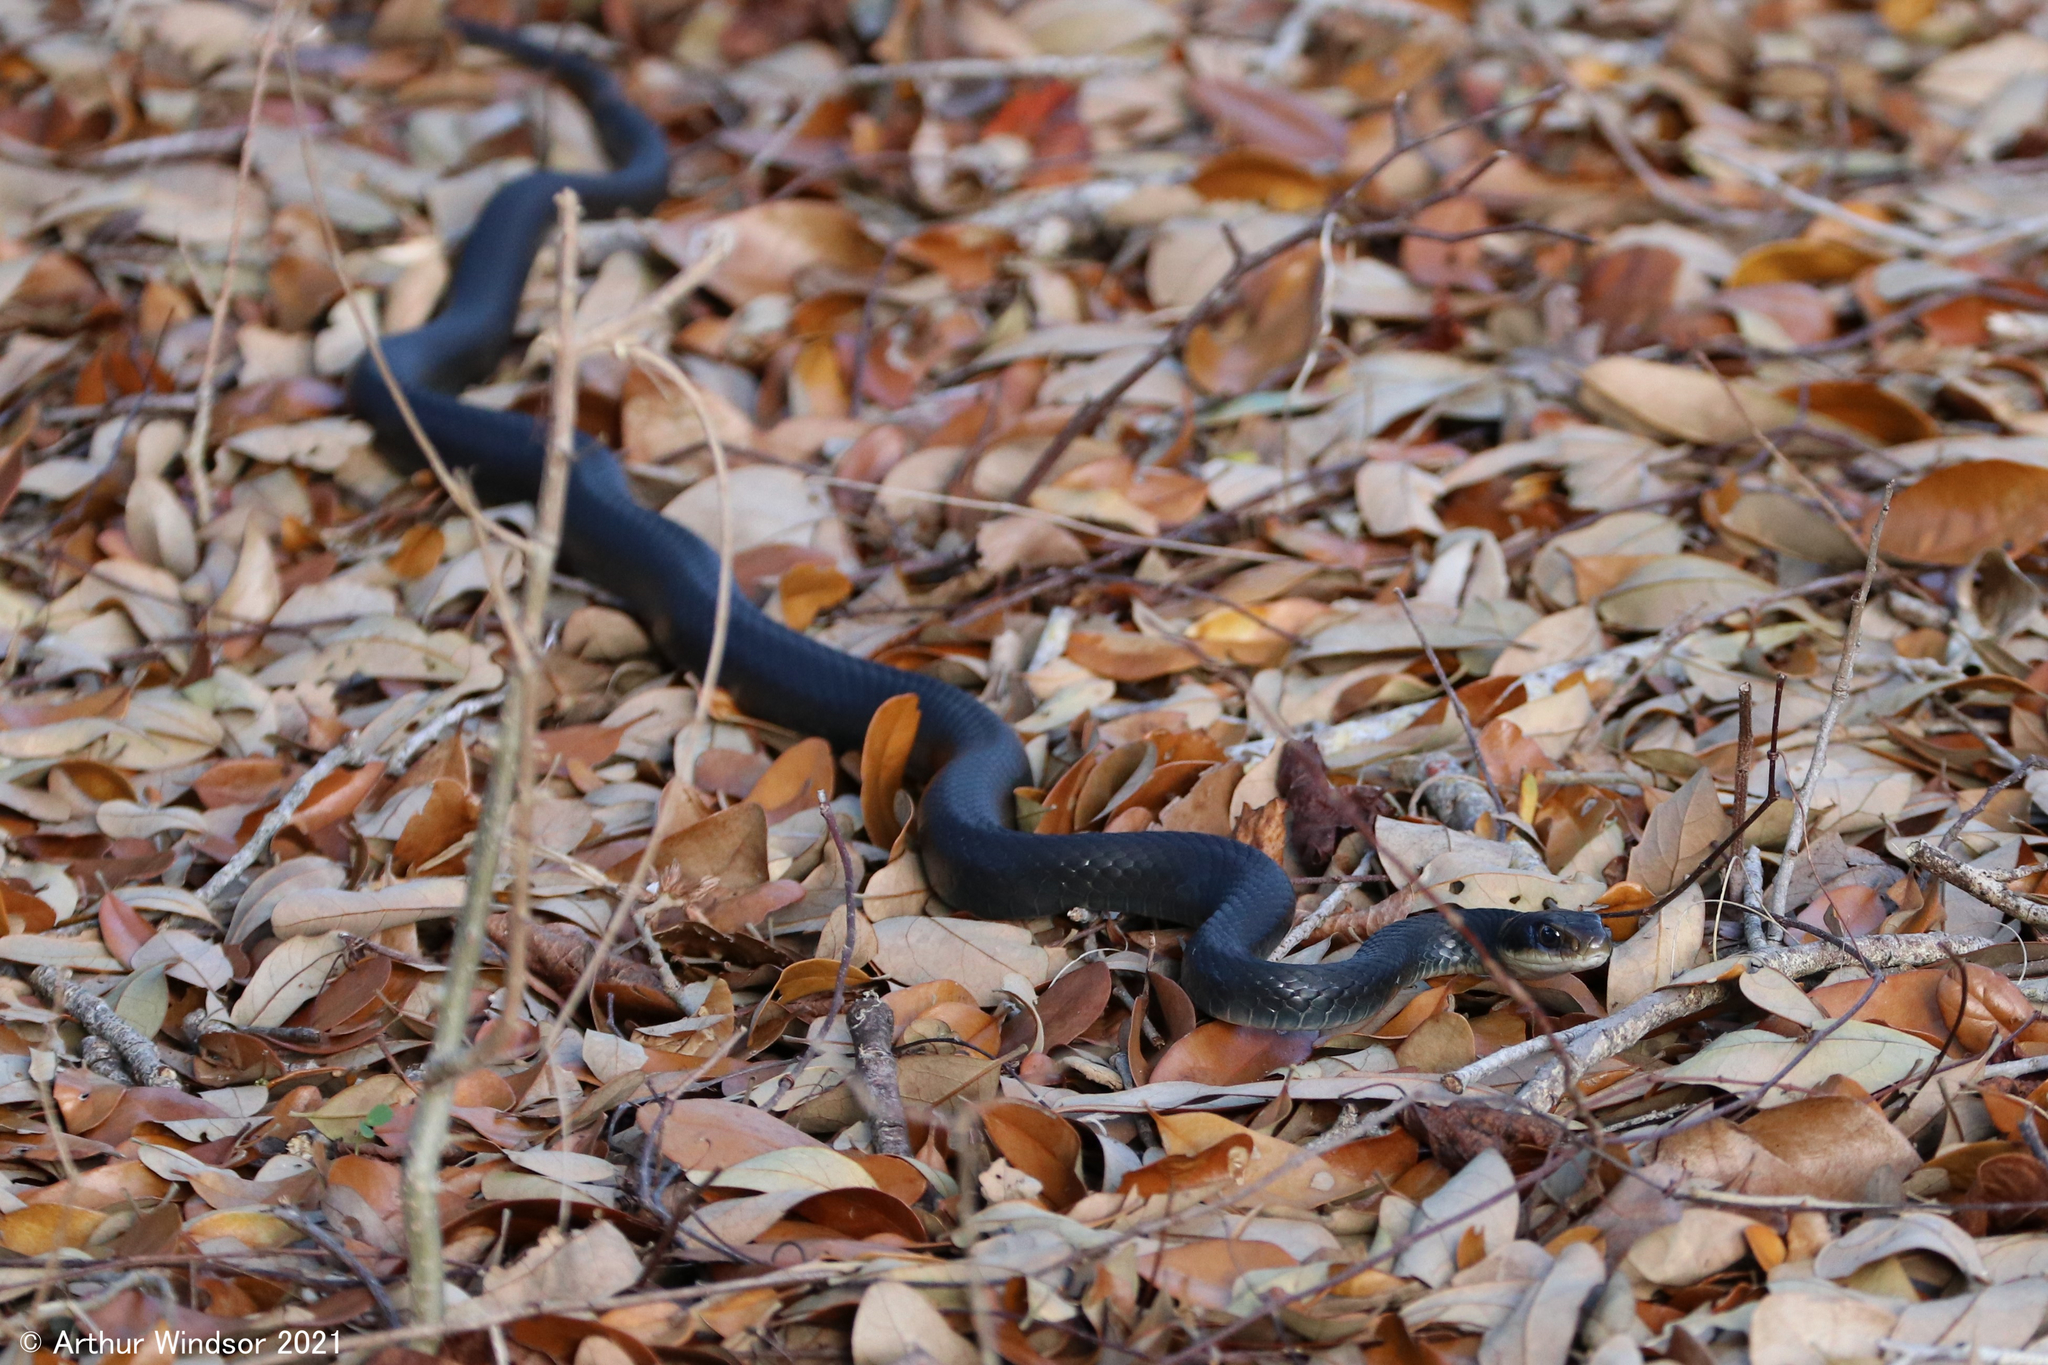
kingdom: Animalia
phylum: Chordata
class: Squamata
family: Colubridae
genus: Coluber
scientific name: Coluber constrictor
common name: Eastern racer
